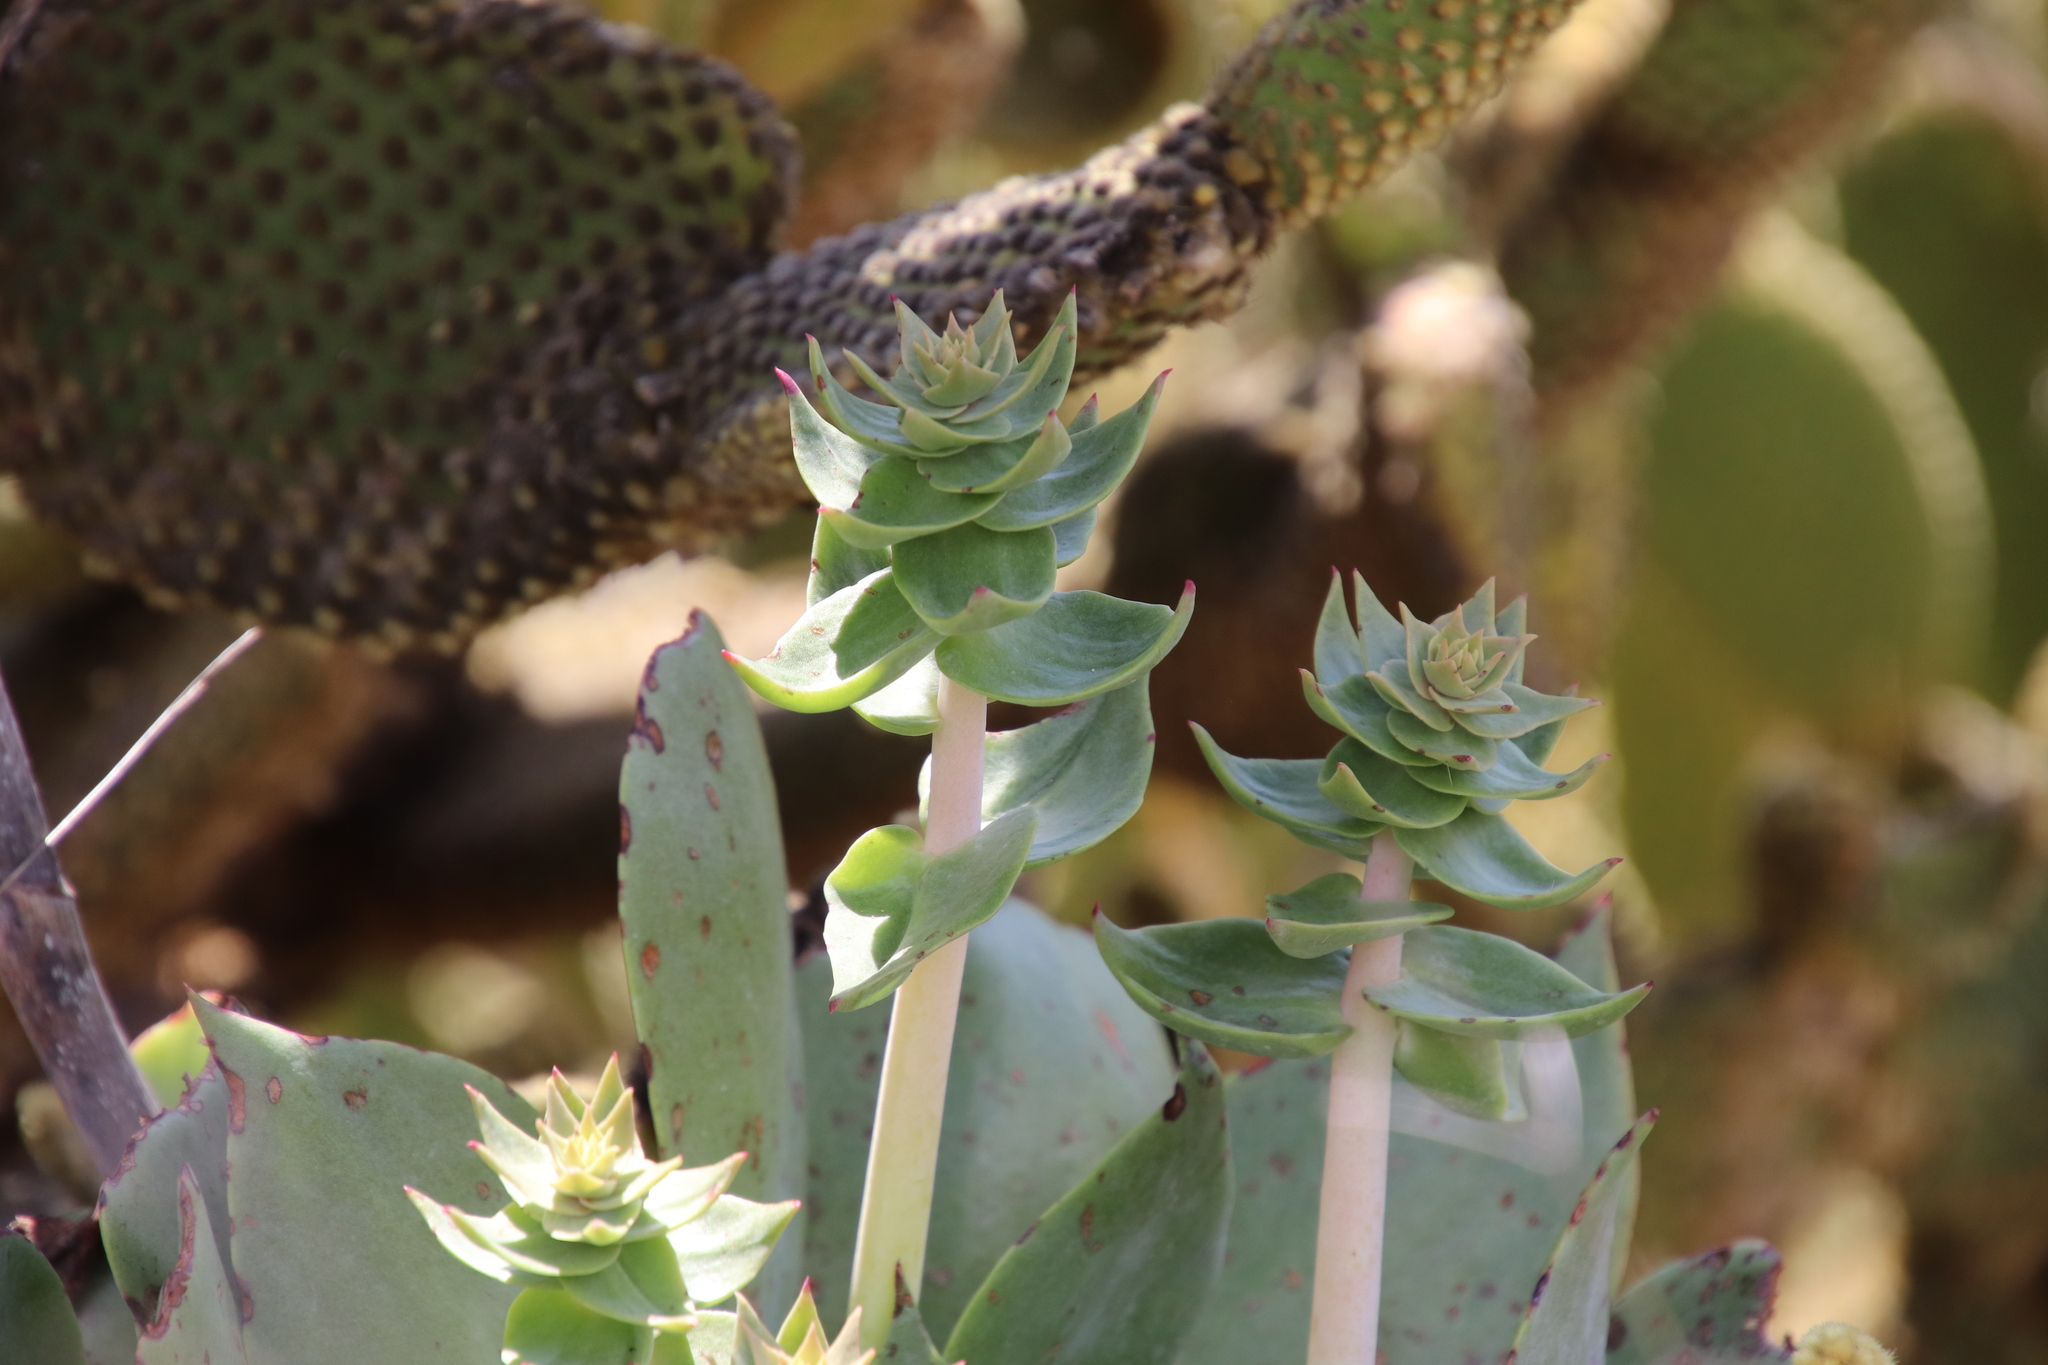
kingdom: Plantae
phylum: Tracheophyta
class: Magnoliopsida
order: Saxifragales
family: Crassulaceae
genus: Dudleya
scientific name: Dudleya pulverulenta
